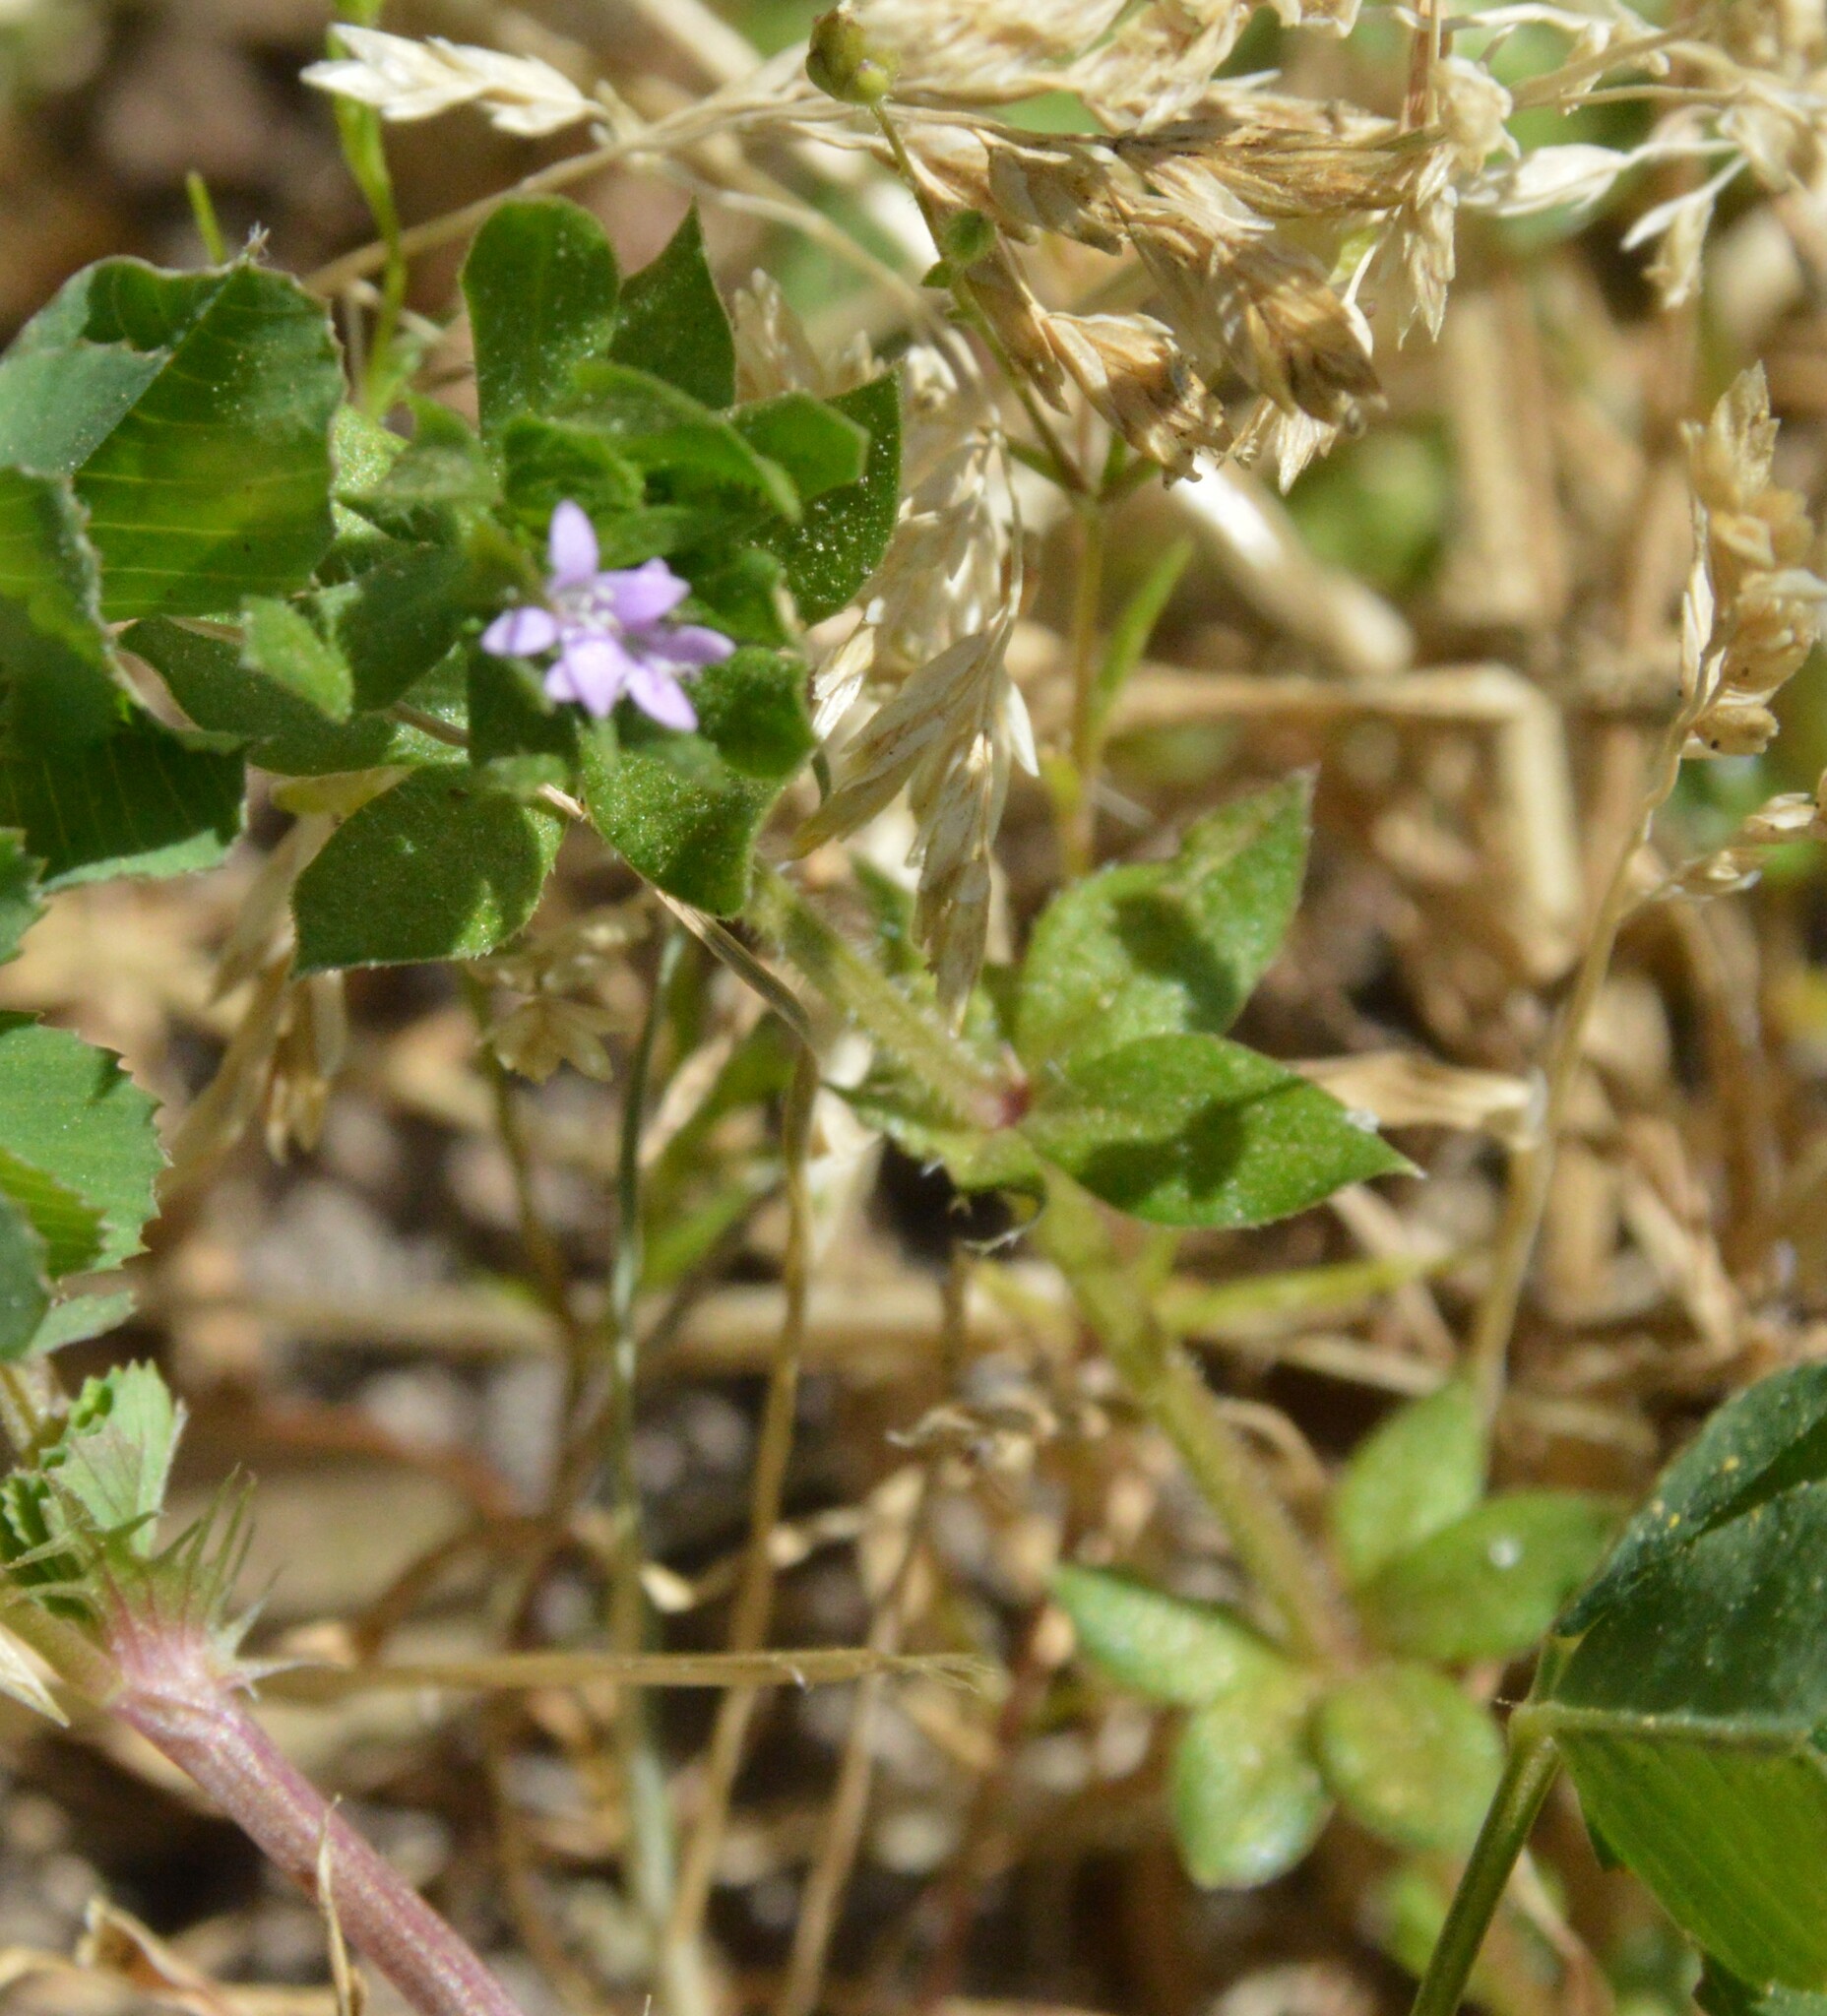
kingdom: Plantae
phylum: Tracheophyta
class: Magnoliopsida
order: Gentianales
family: Rubiaceae
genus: Sherardia
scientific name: Sherardia arvensis
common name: Field madder
